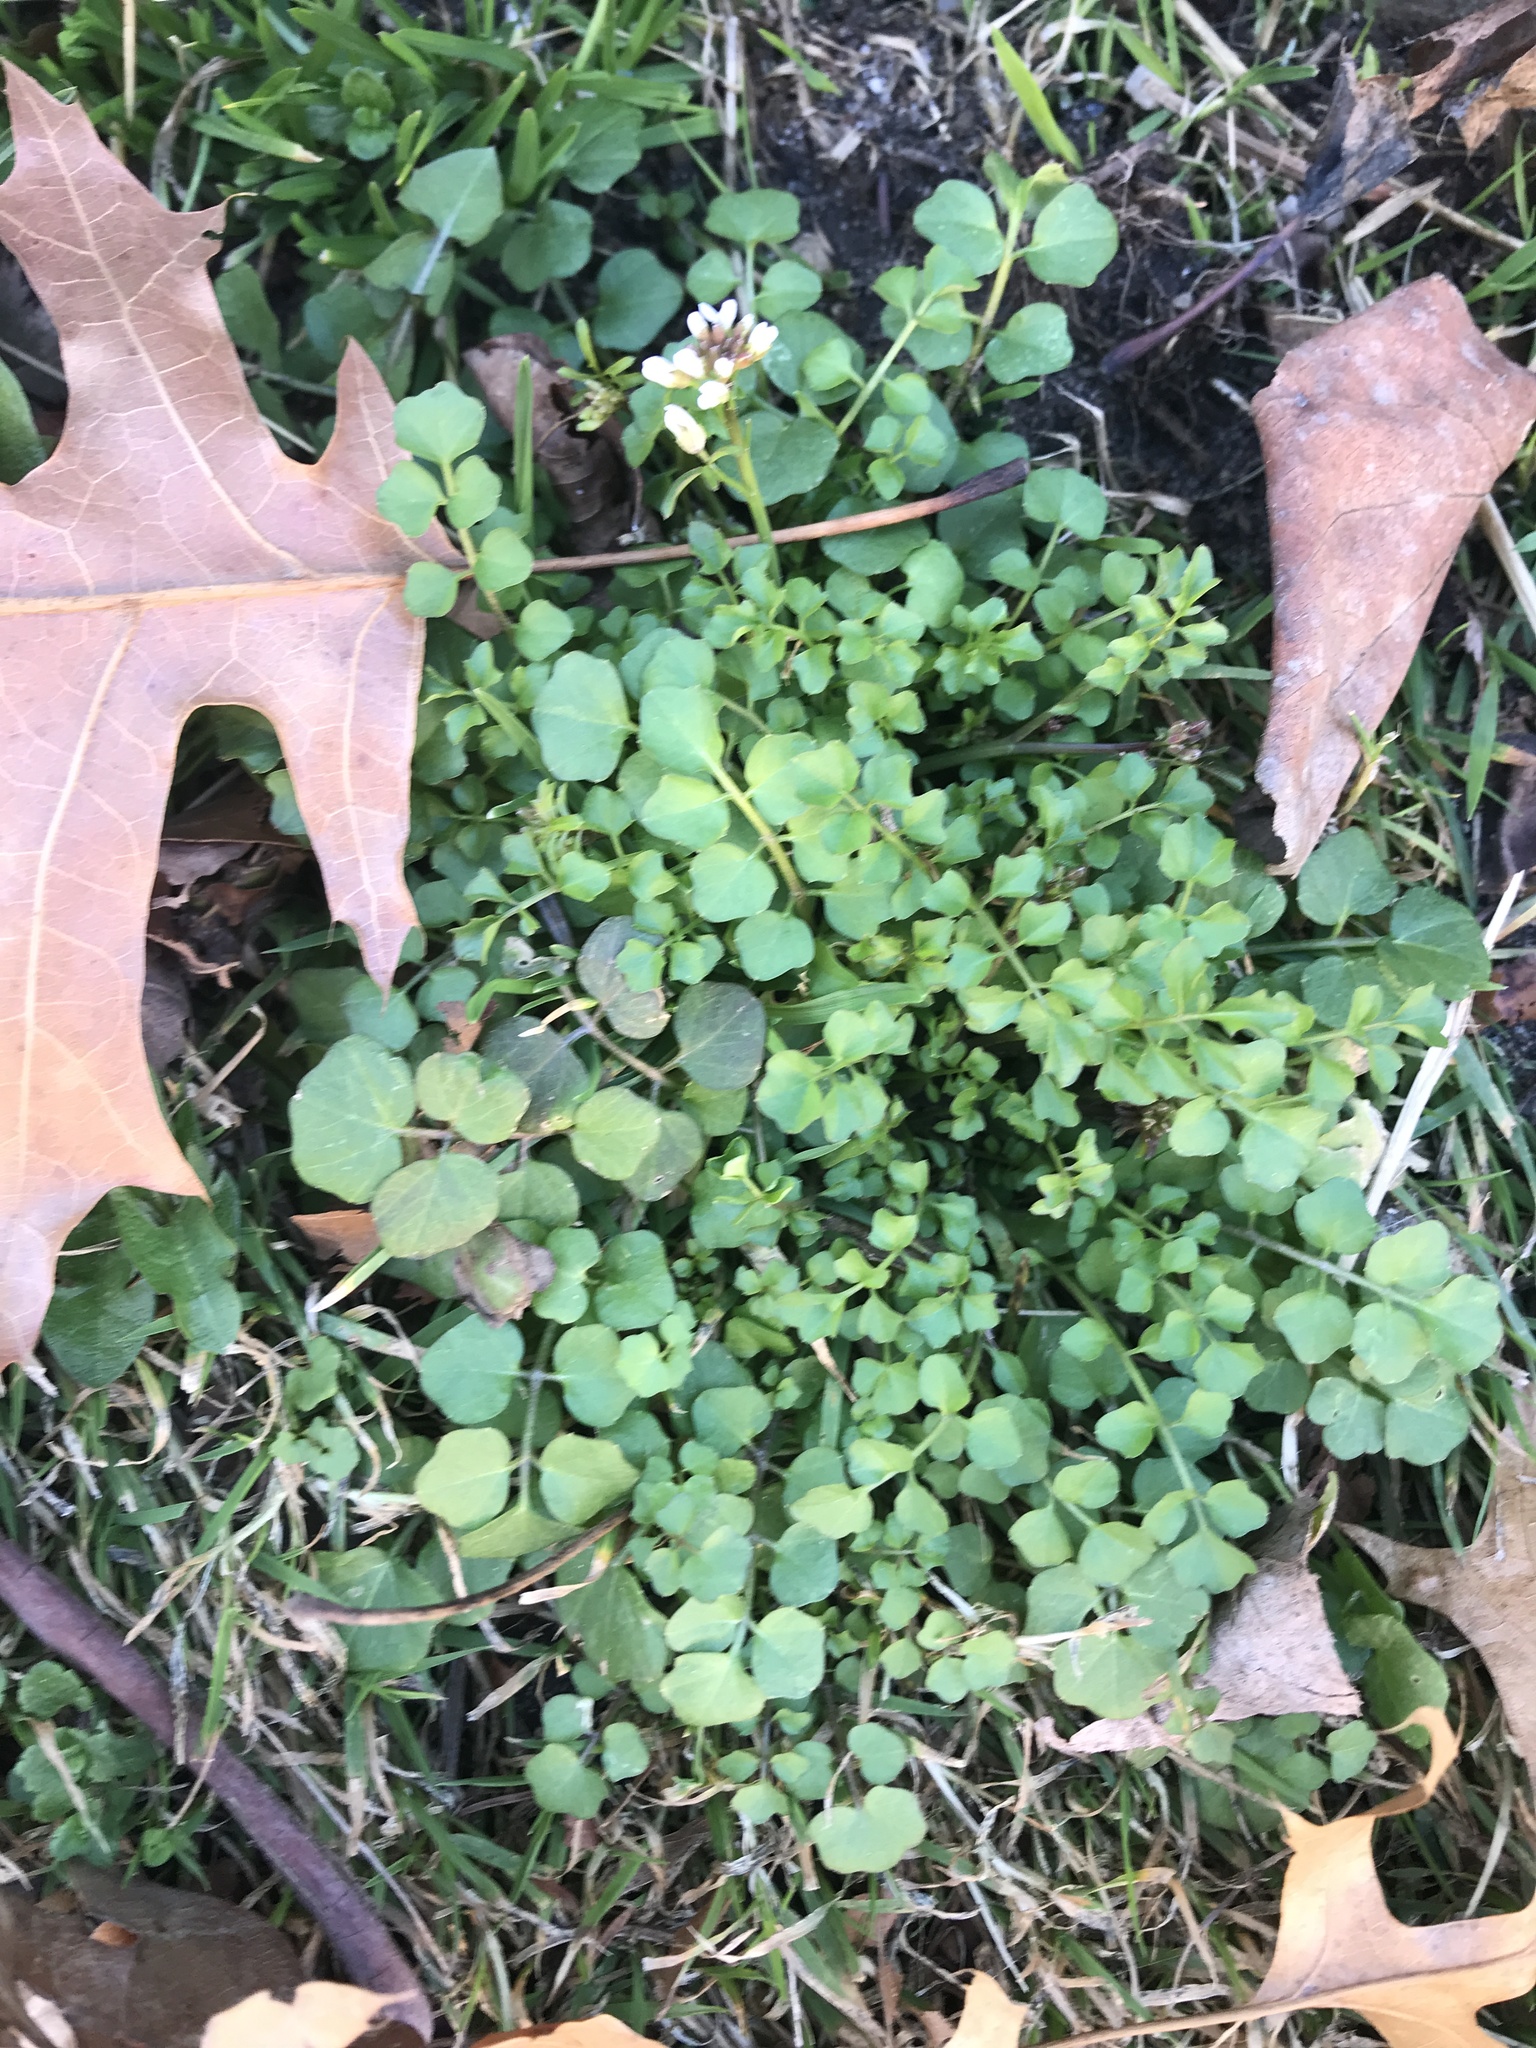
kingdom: Plantae
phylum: Tracheophyta
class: Magnoliopsida
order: Brassicales
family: Brassicaceae
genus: Cardamine
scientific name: Cardamine hirsuta
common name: Hairy bittercress
